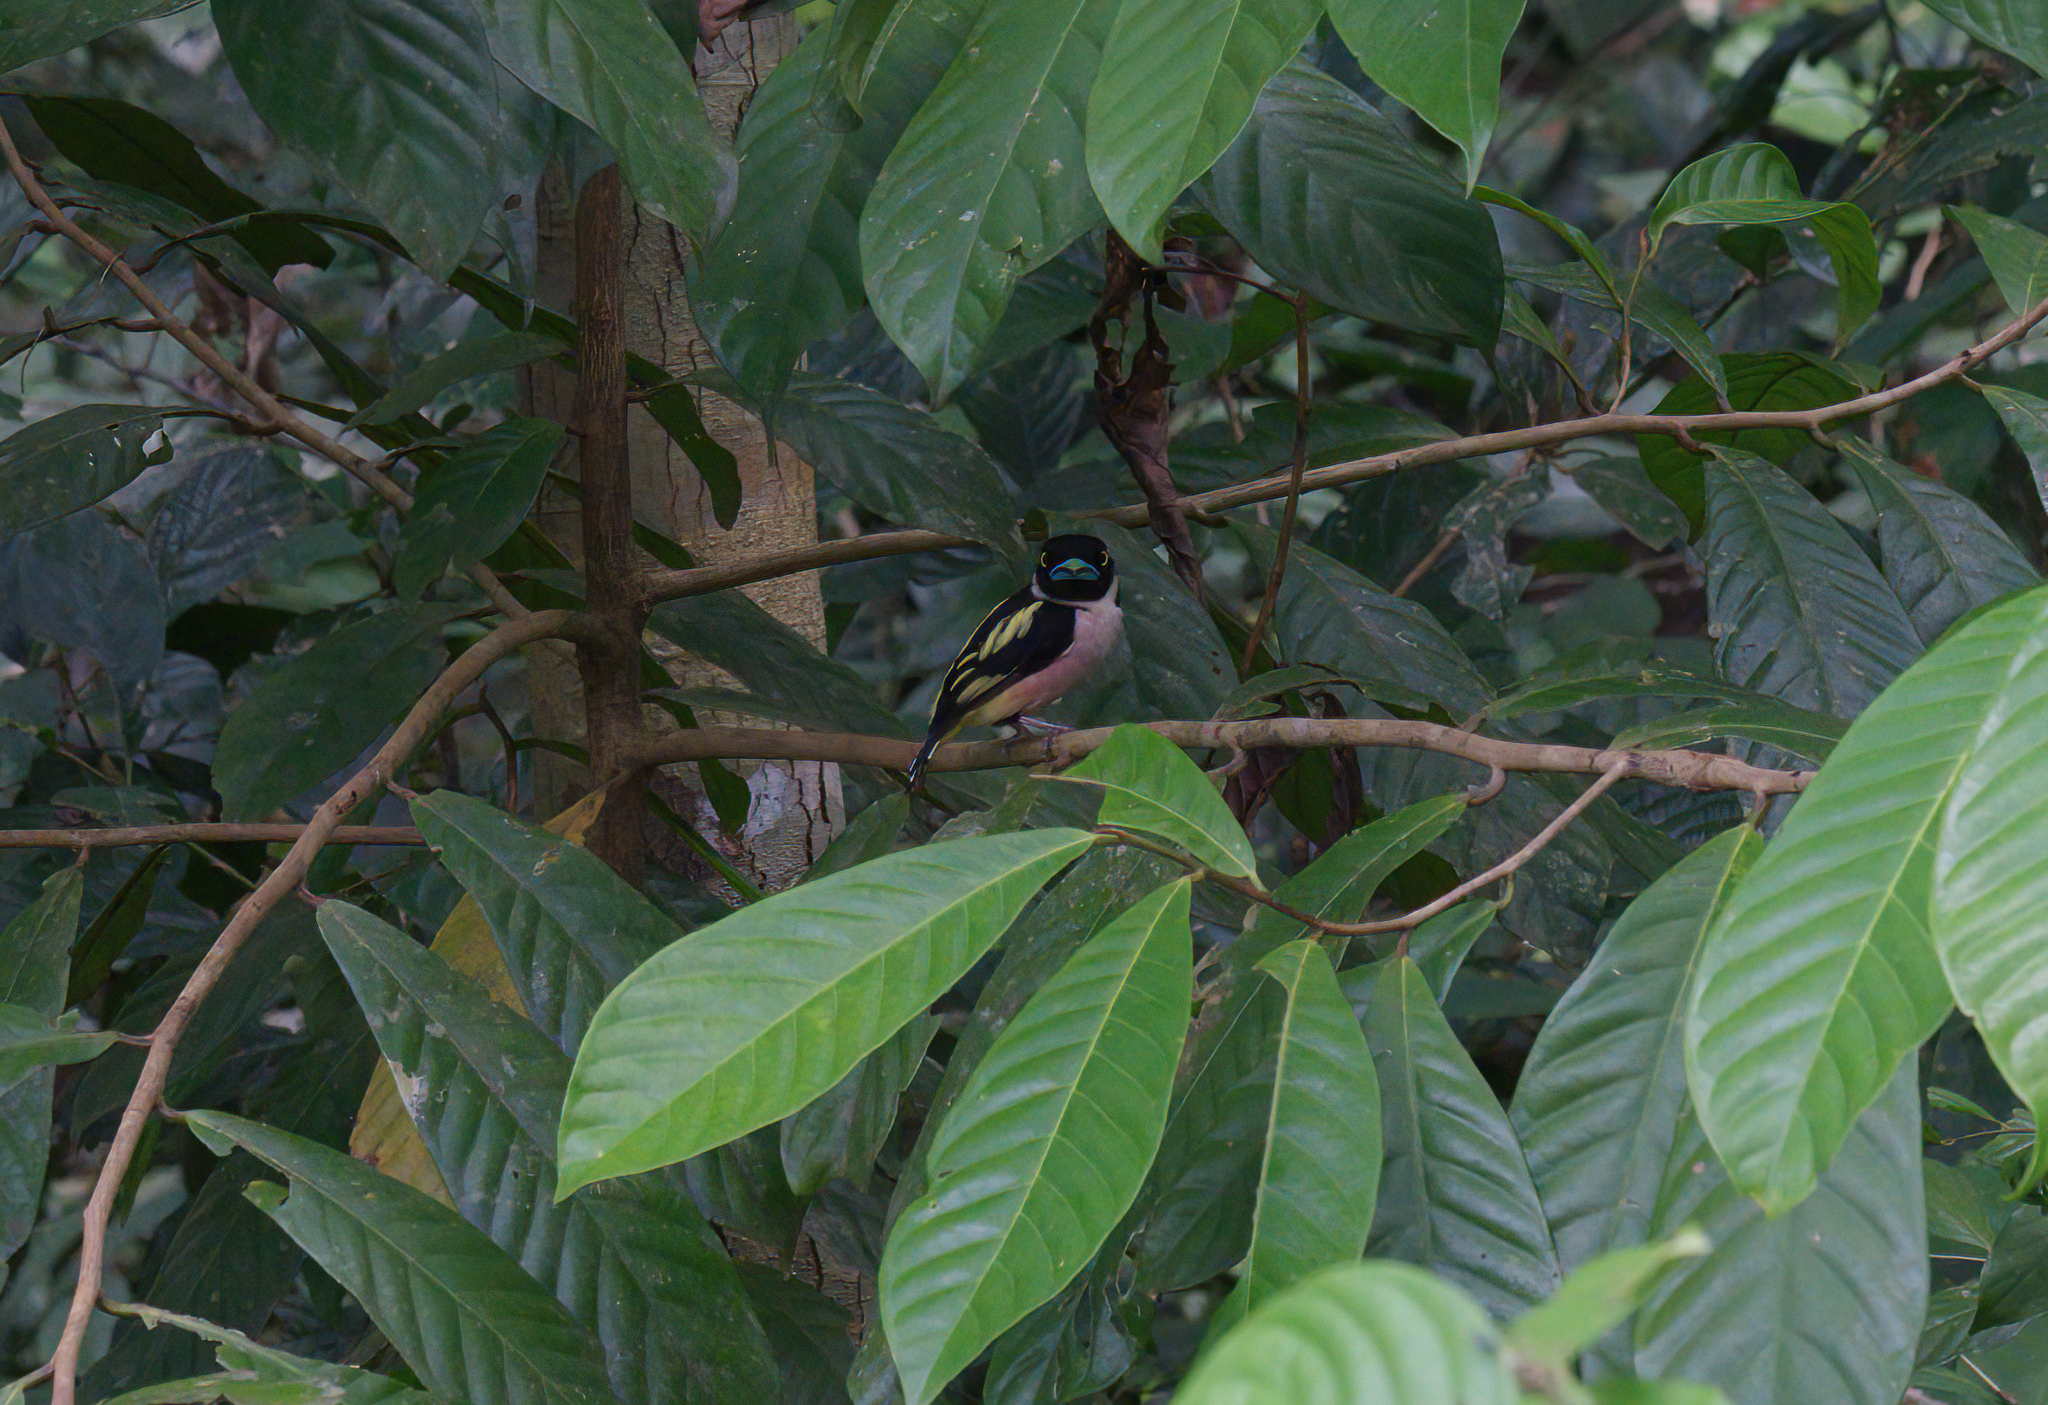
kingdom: Animalia
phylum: Chordata
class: Aves
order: Passeriformes
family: Eurylaimidae
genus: Eurylaimus
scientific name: Eurylaimus ochromalus
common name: Black-and-yellow broadbill
